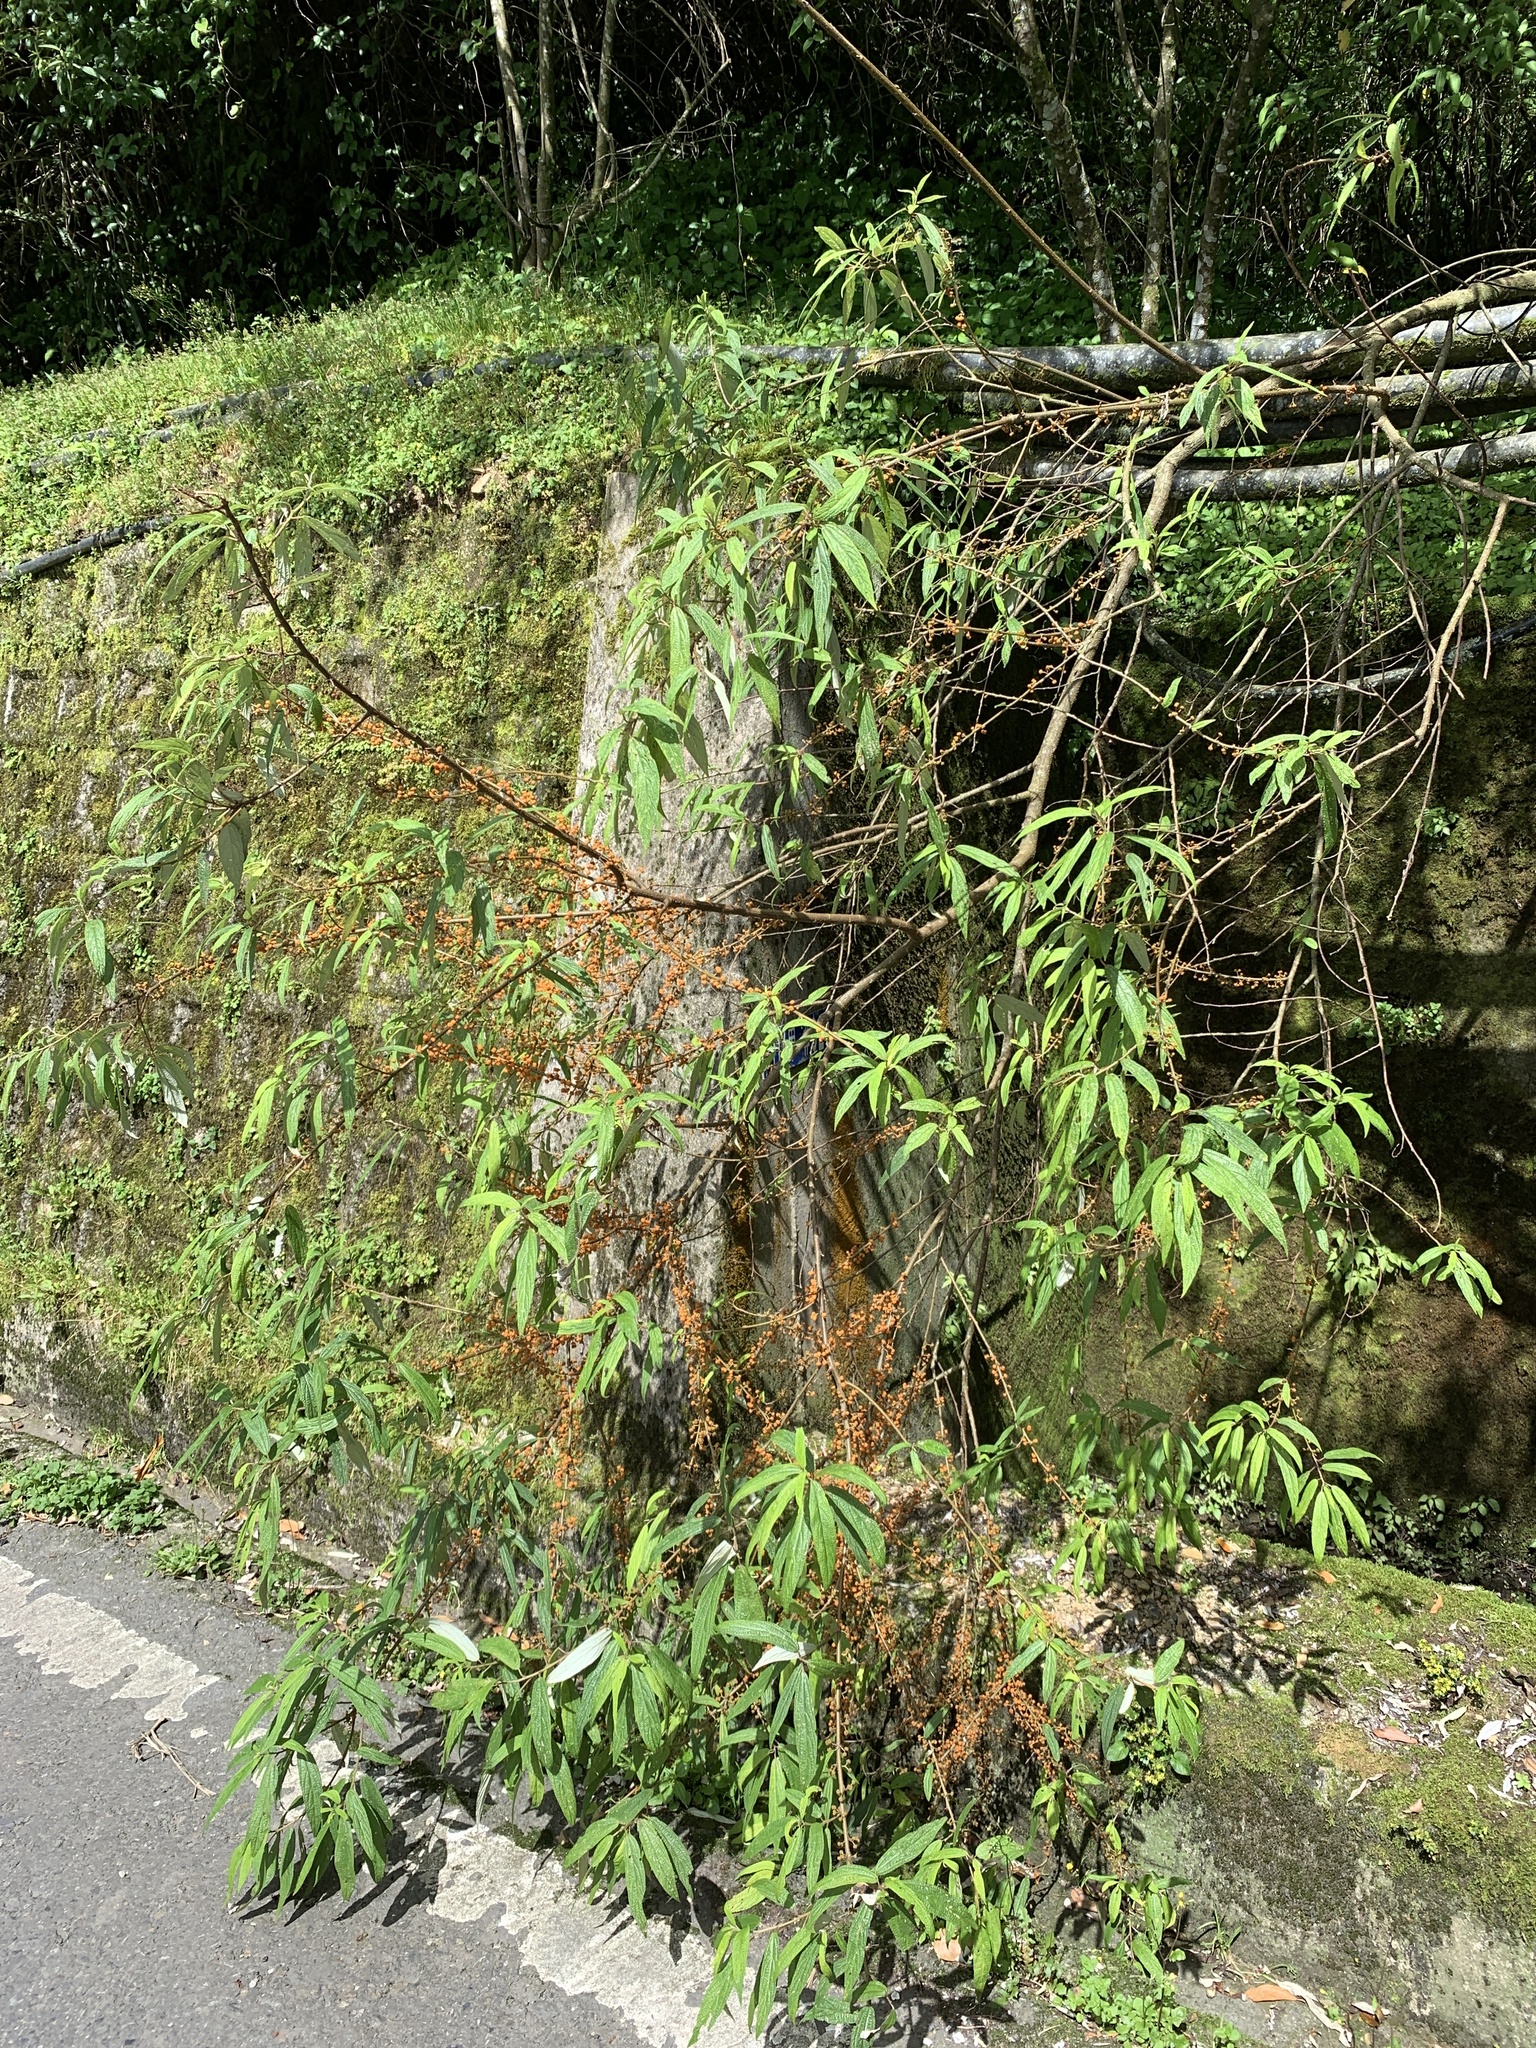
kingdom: Plantae
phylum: Tracheophyta
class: Magnoliopsida
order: Rosales
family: Urticaceae
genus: Debregeasia
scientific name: Debregeasia orientalis
